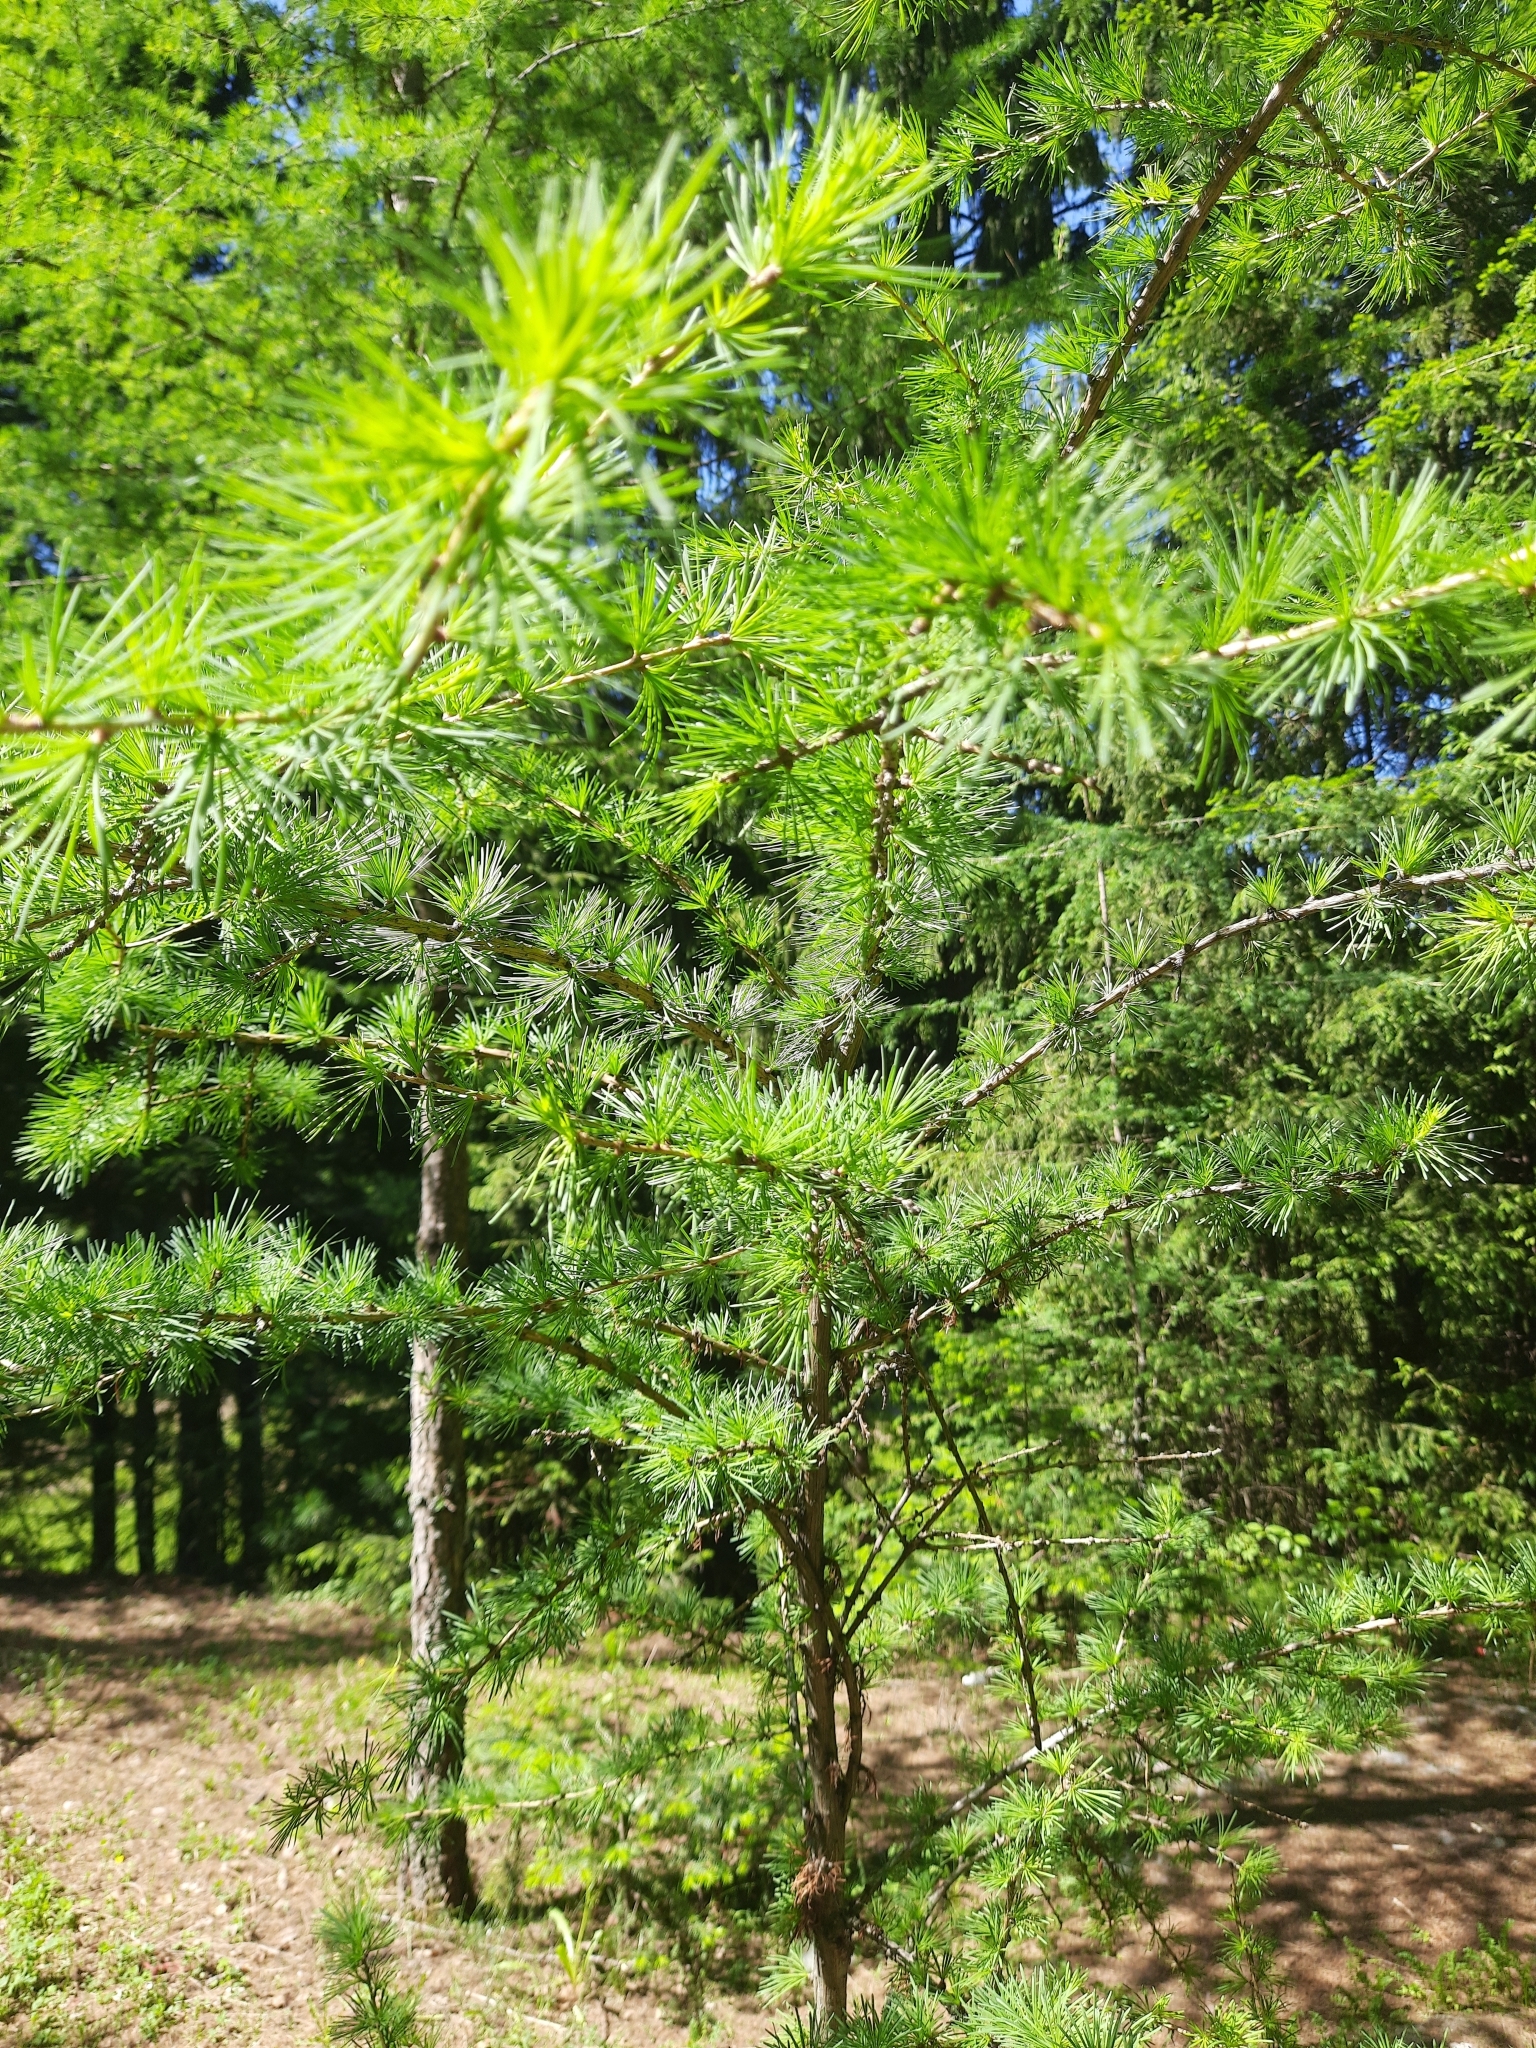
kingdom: Plantae
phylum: Tracheophyta
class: Pinopsida
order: Pinales
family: Pinaceae
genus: Larix
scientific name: Larix sibirica
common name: Siberian larch
